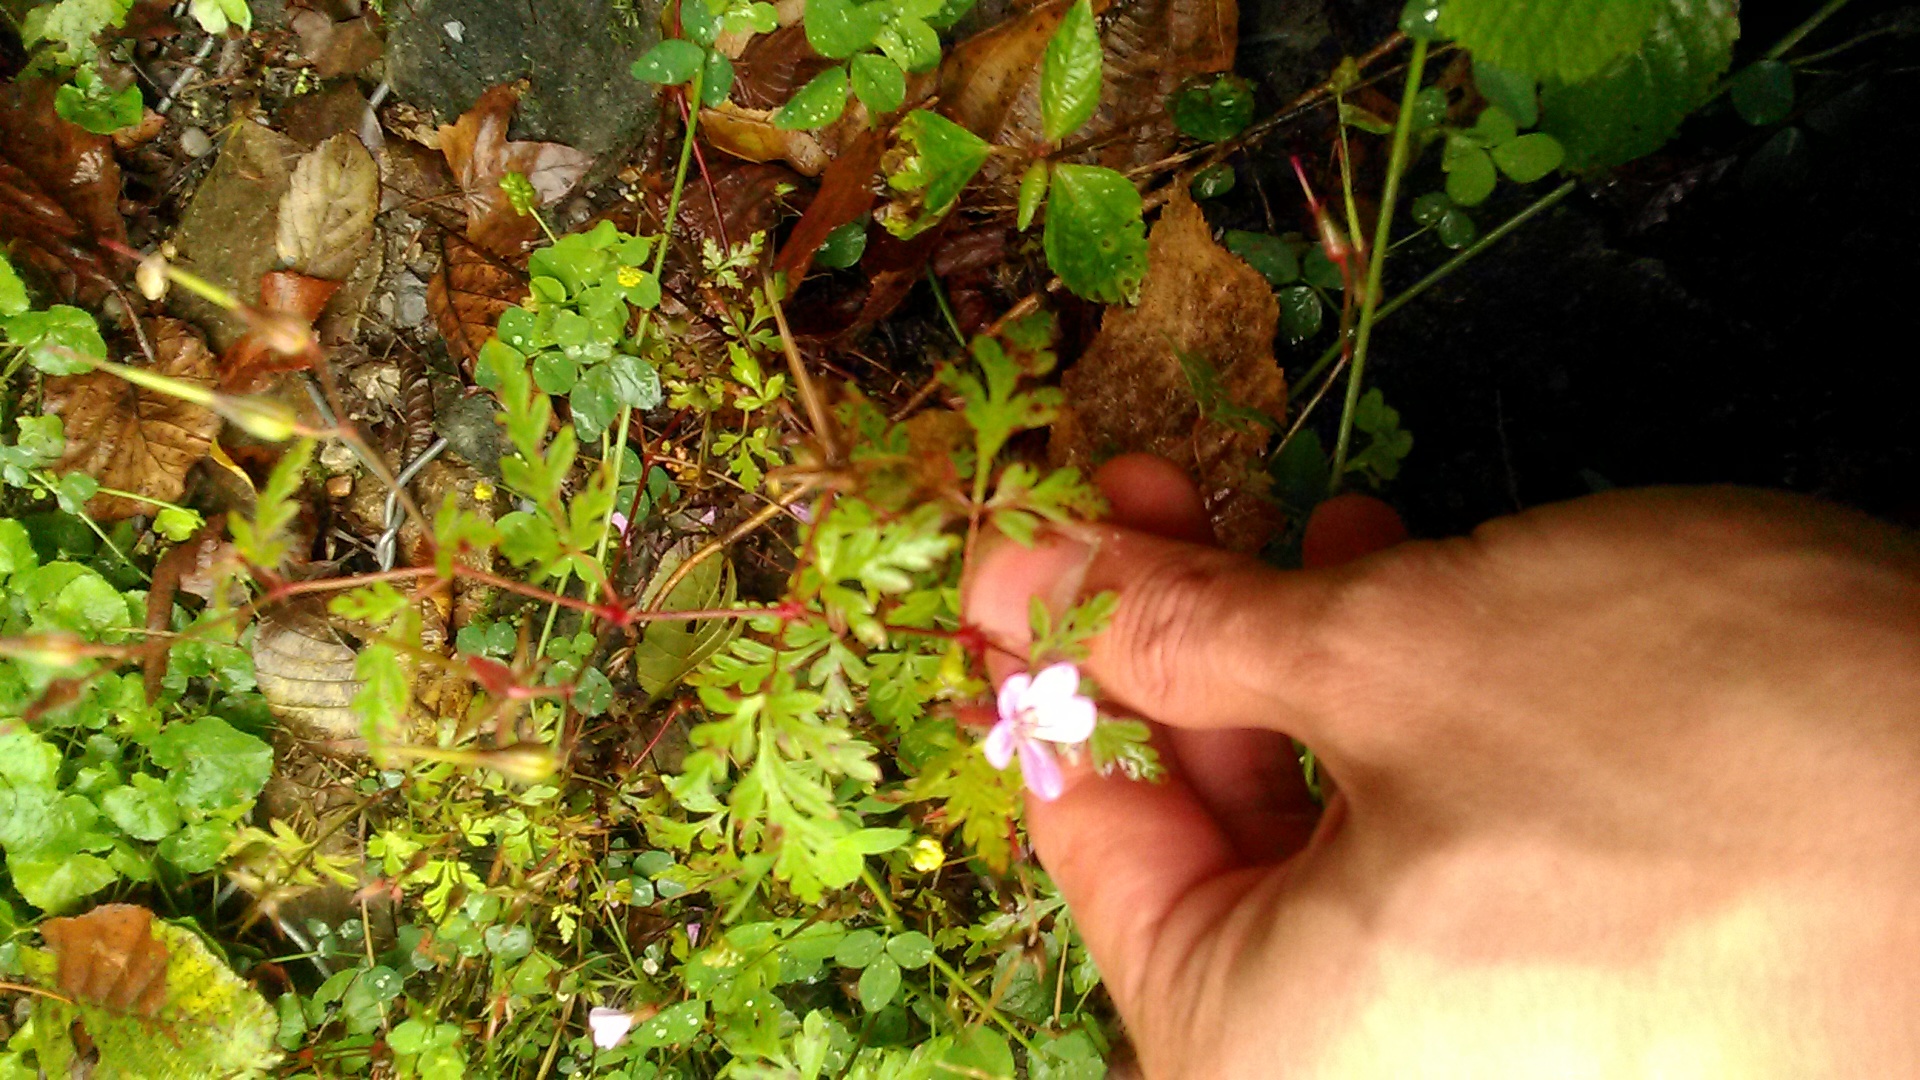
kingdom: Plantae
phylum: Tracheophyta
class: Magnoliopsida
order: Geraniales
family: Geraniaceae
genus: Geranium
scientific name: Geranium robertianum
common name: Herb-robert
